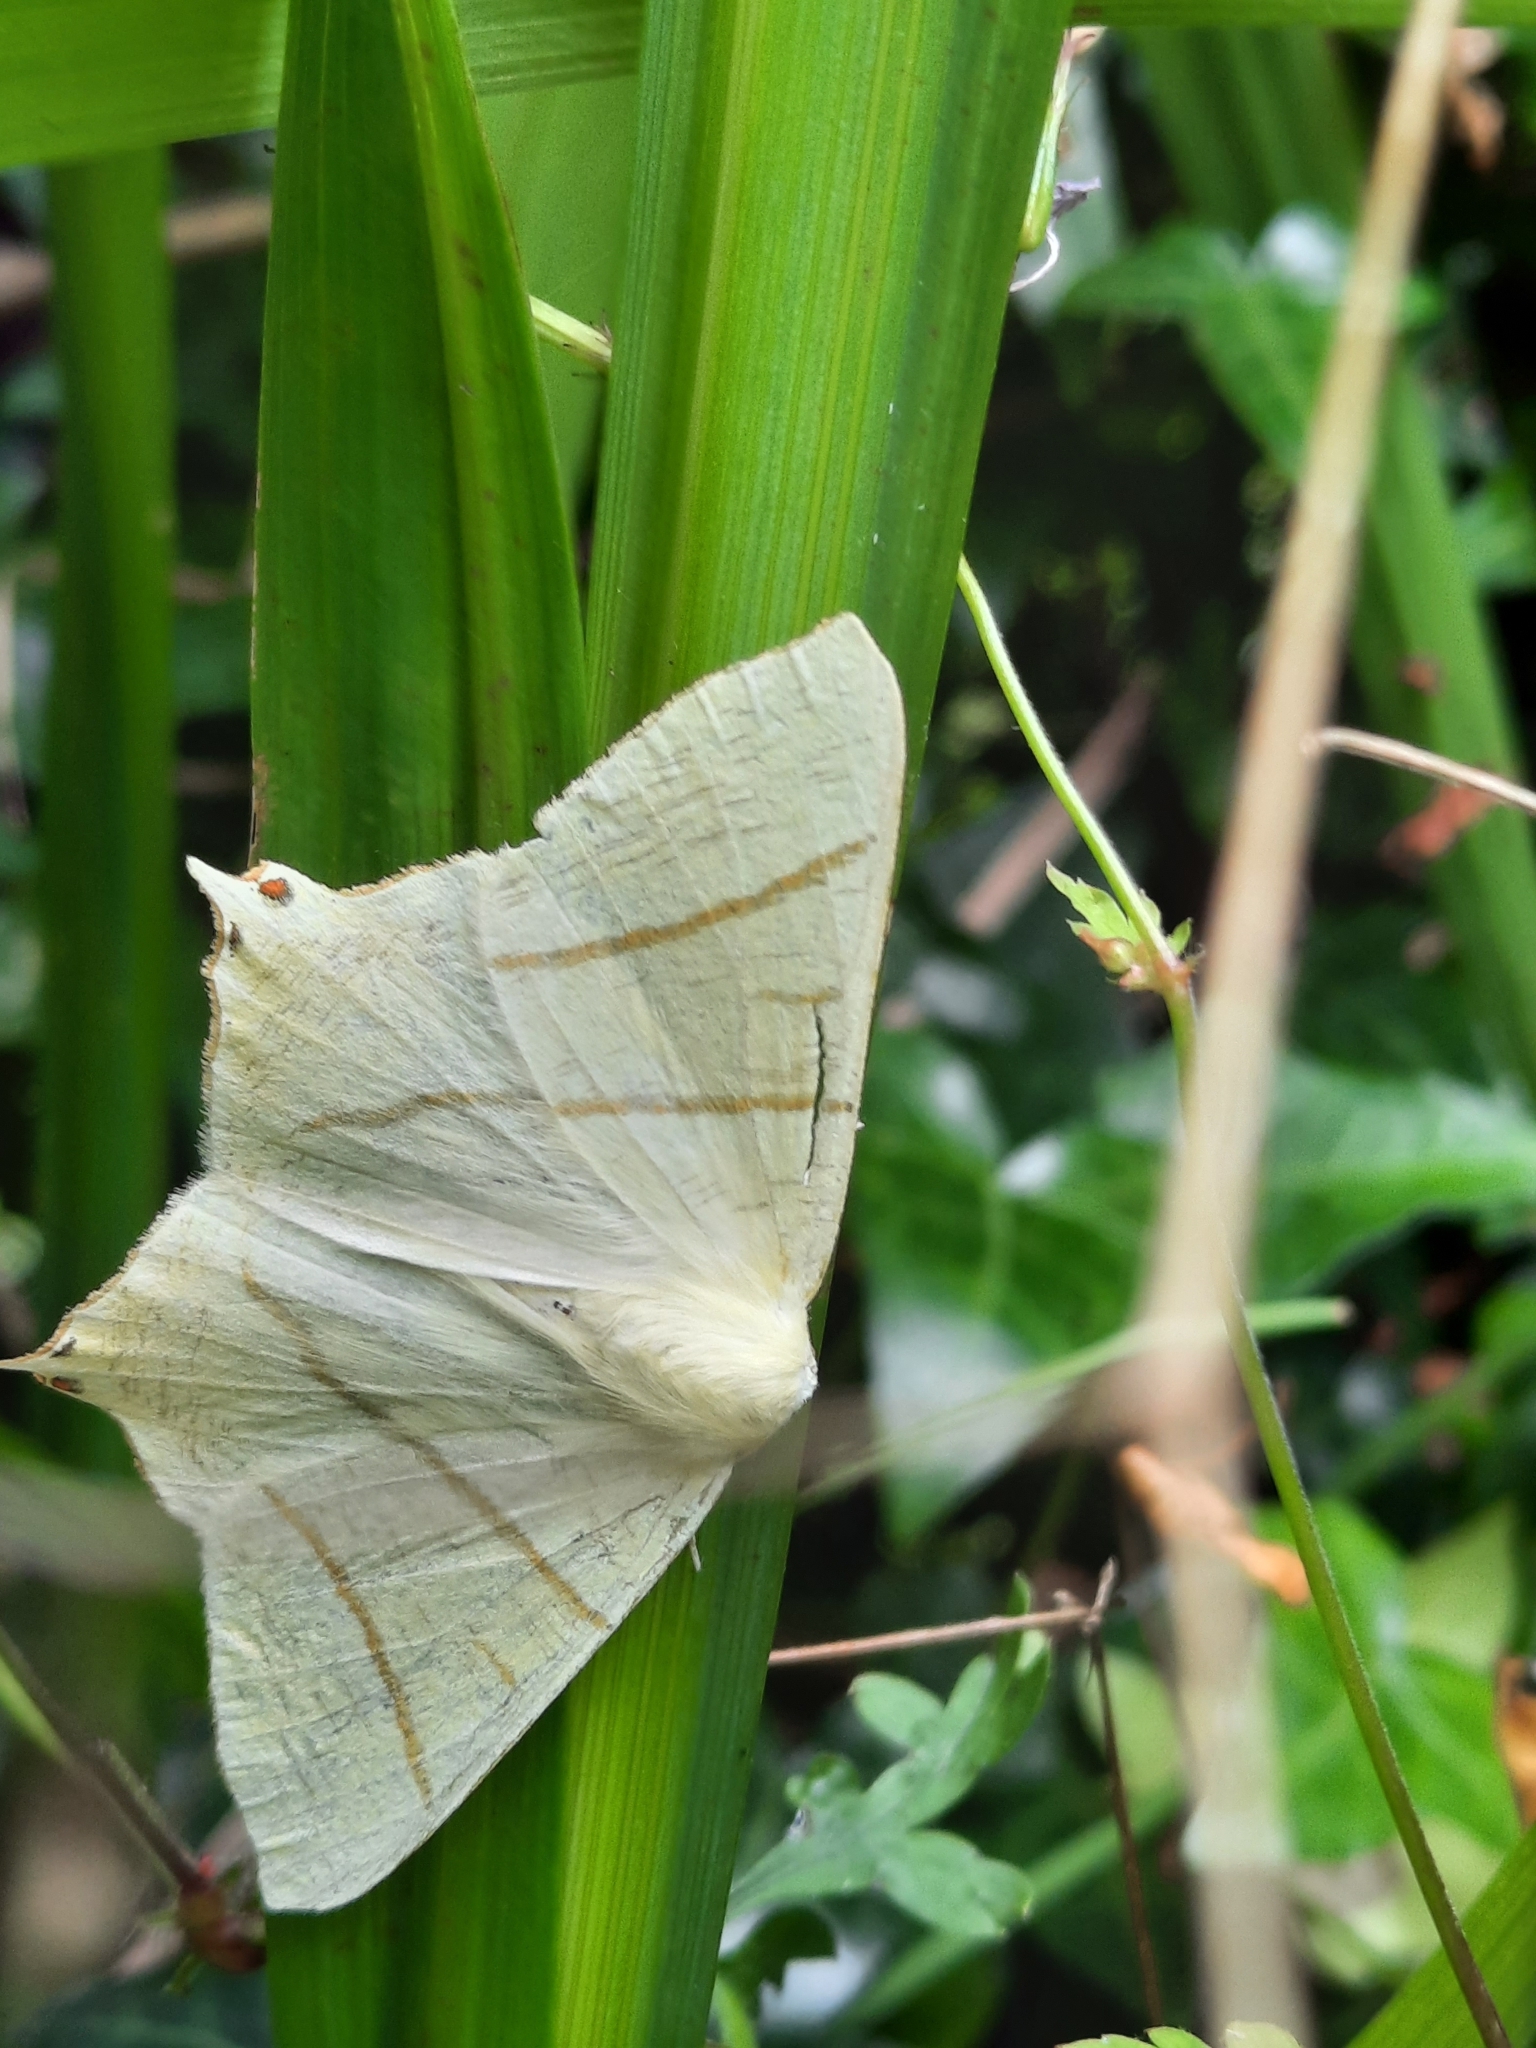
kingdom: Animalia
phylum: Arthropoda
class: Insecta
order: Lepidoptera
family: Geometridae
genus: Ourapteryx
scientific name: Ourapteryx sambucaria
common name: Swallow-tailed moth
